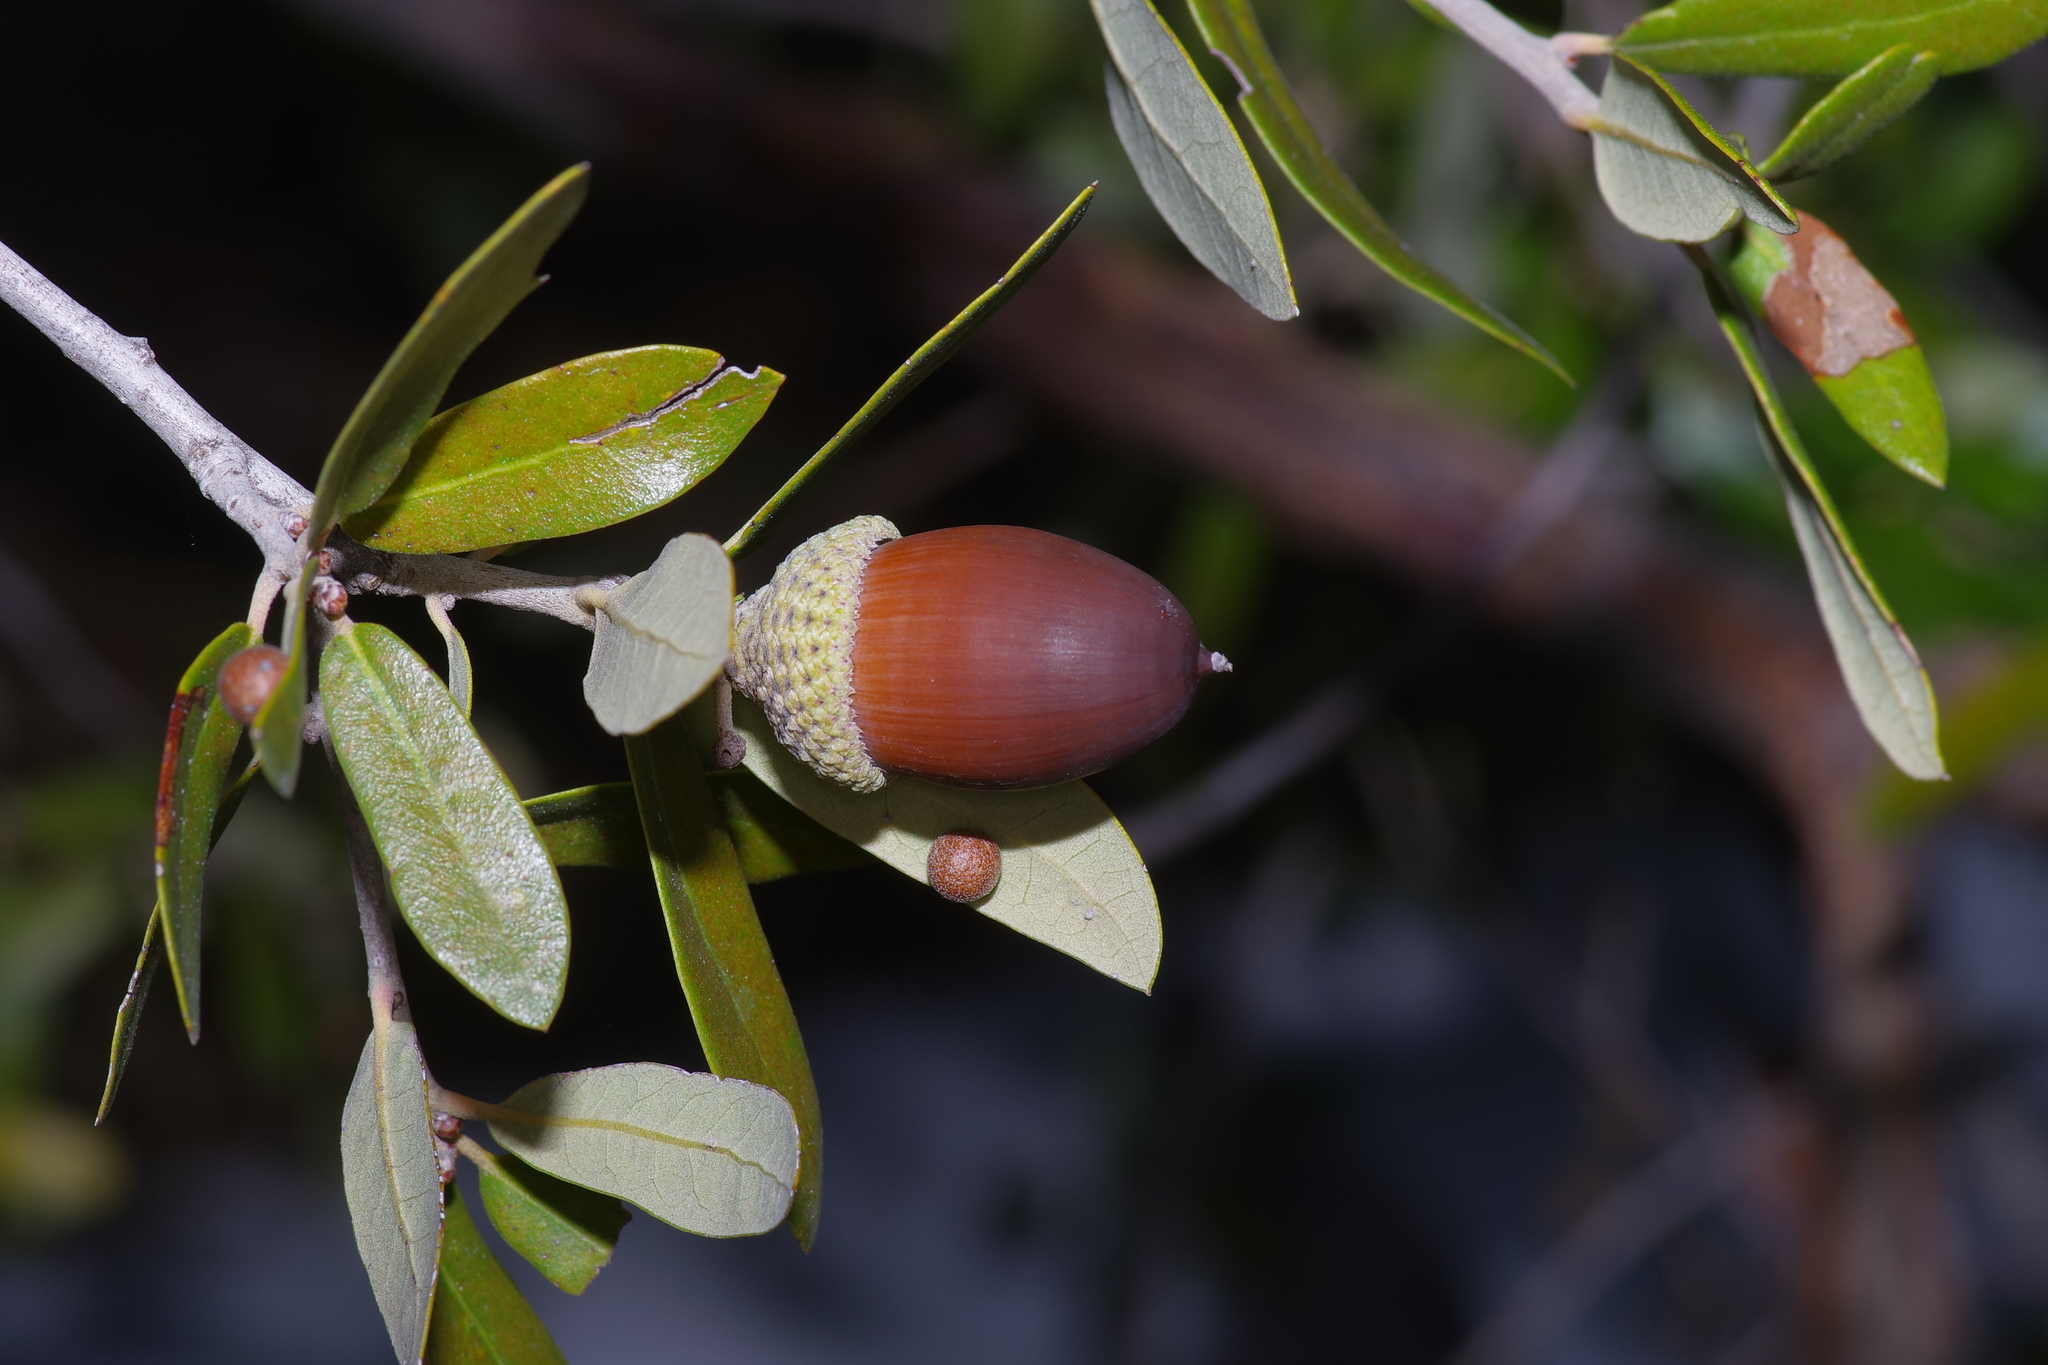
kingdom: Plantae
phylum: Tracheophyta
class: Magnoliopsida
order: Fagales
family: Fagaceae
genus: Quercus
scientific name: Quercus fusiformis
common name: Texas live oak
